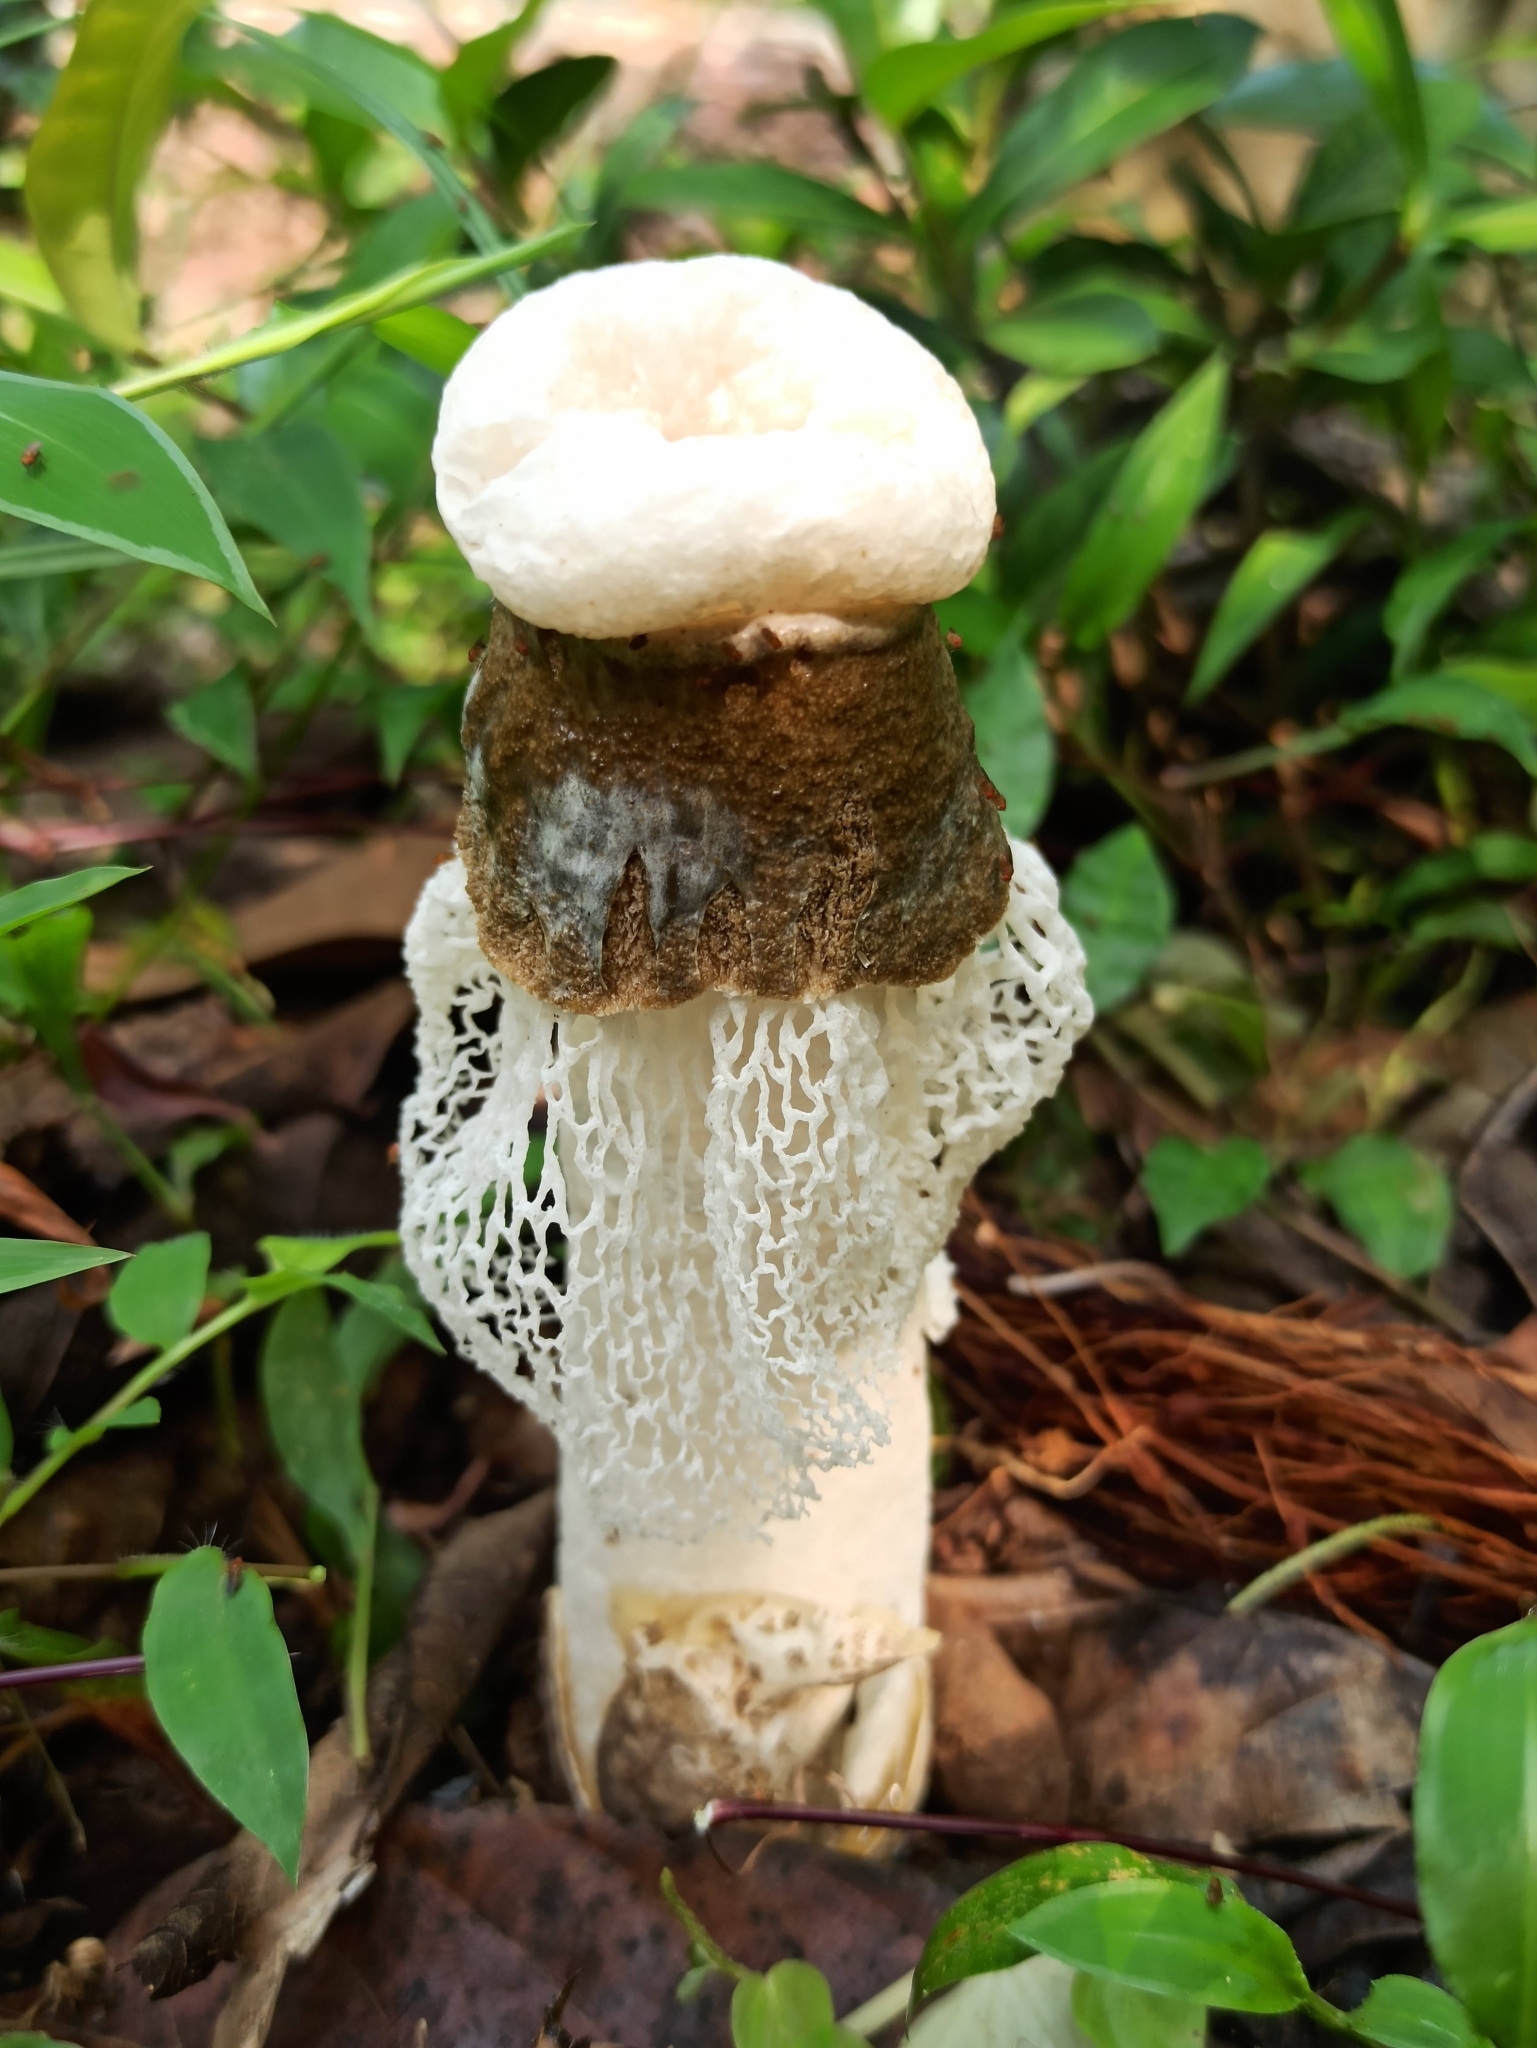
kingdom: Fungi
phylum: Basidiomycota
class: Agaricomycetes
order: Phallales
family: Phallaceae
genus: Phallus
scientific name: Phallus merulinus
